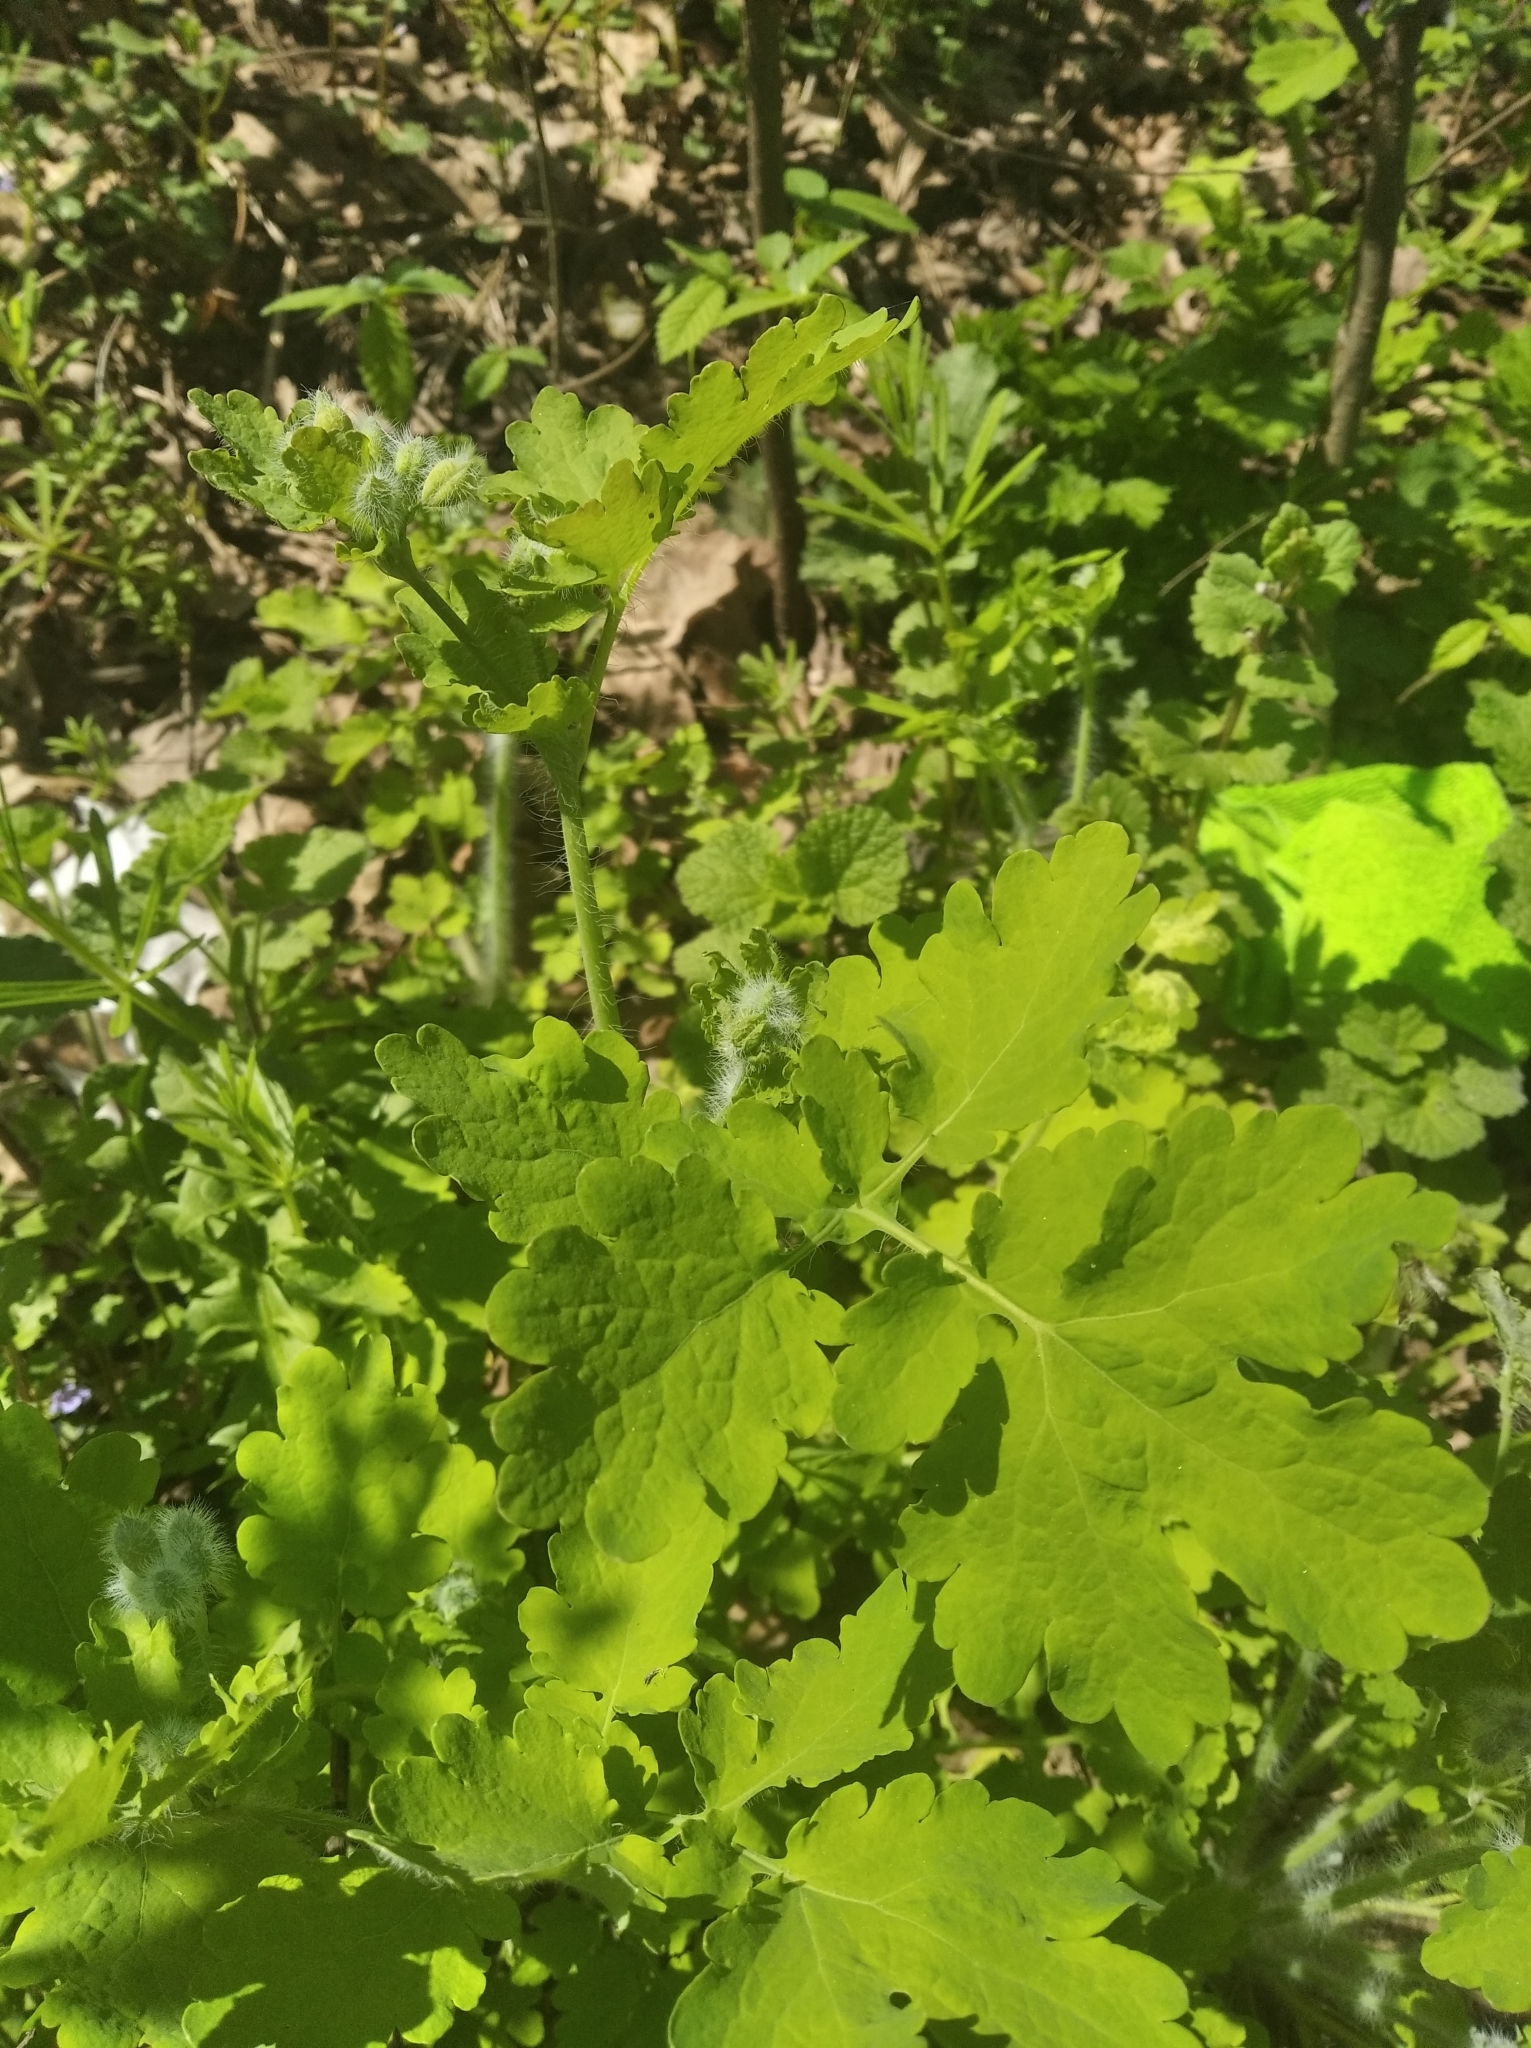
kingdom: Plantae
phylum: Tracheophyta
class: Magnoliopsida
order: Ranunculales
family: Papaveraceae
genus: Chelidonium
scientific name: Chelidonium majus
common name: Greater celandine
